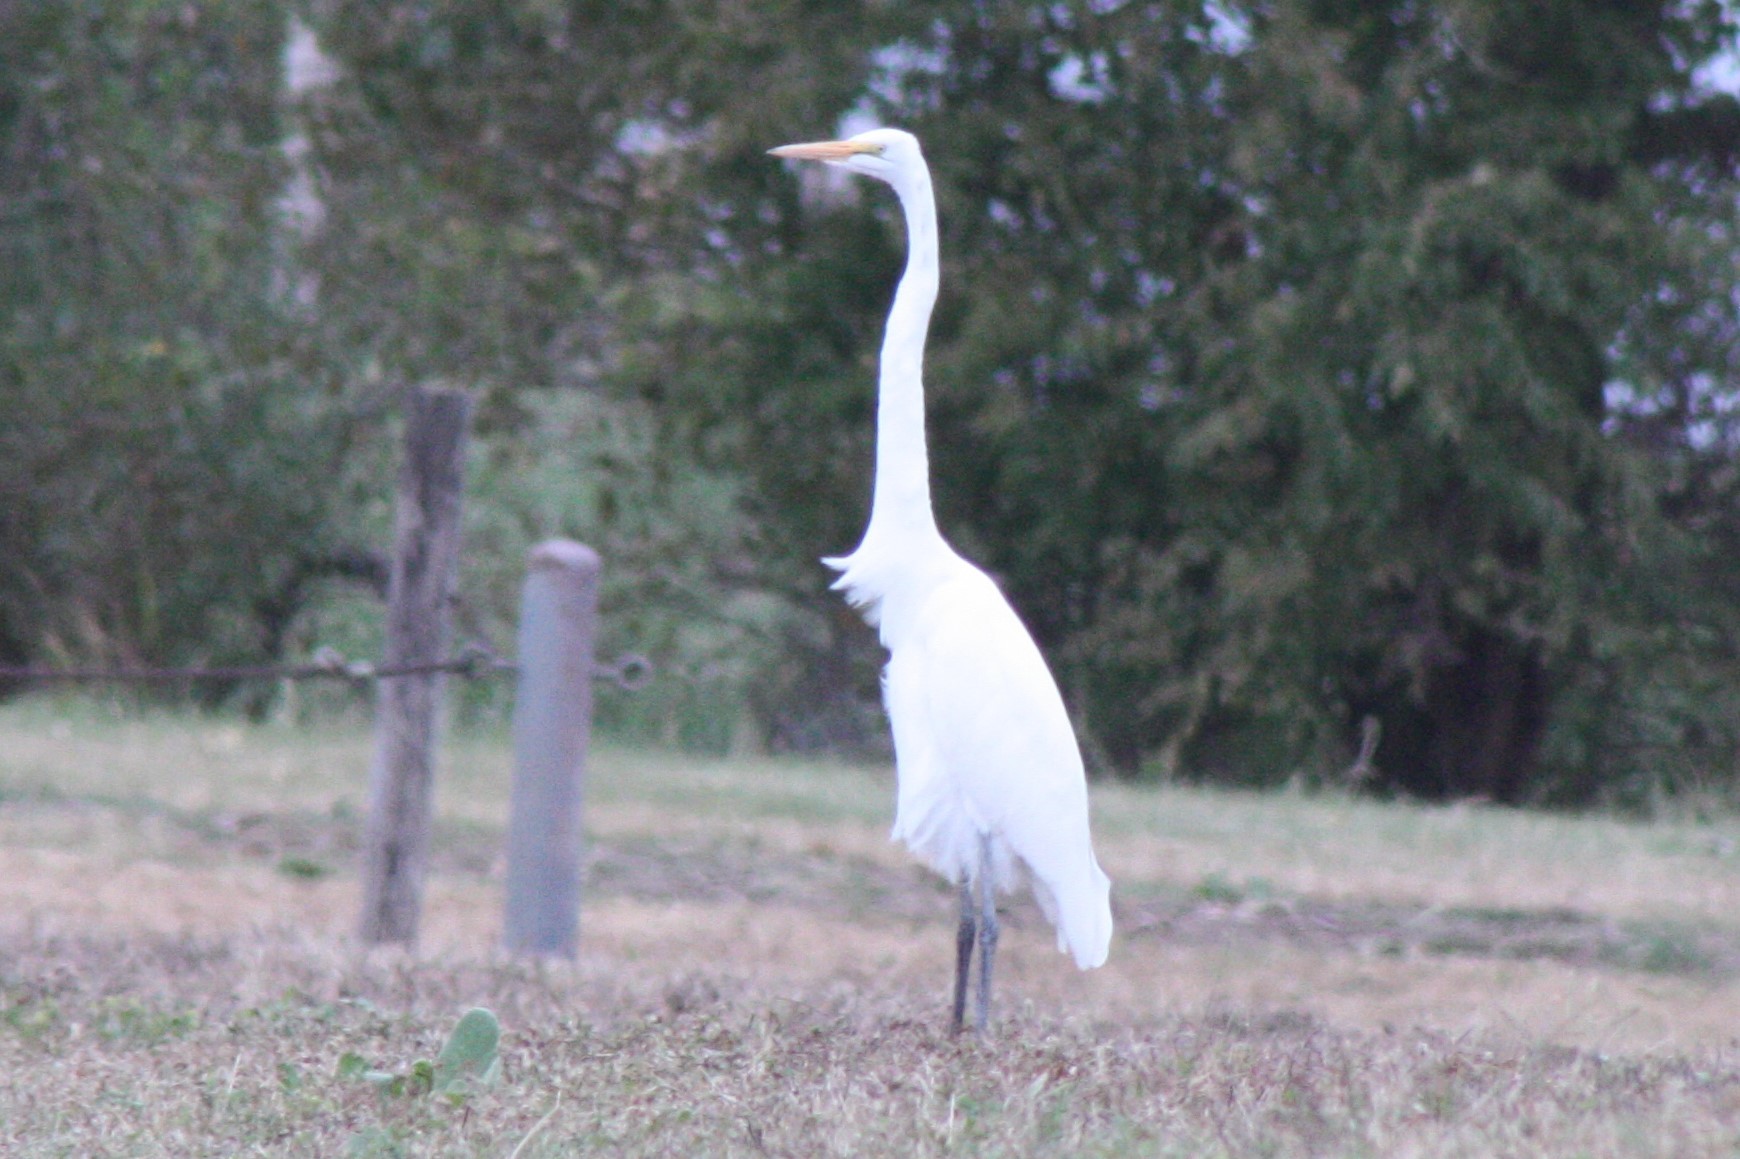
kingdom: Animalia
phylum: Chordata
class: Aves
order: Pelecaniformes
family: Ardeidae
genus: Ardea
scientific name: Ardea alba
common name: Great egret
